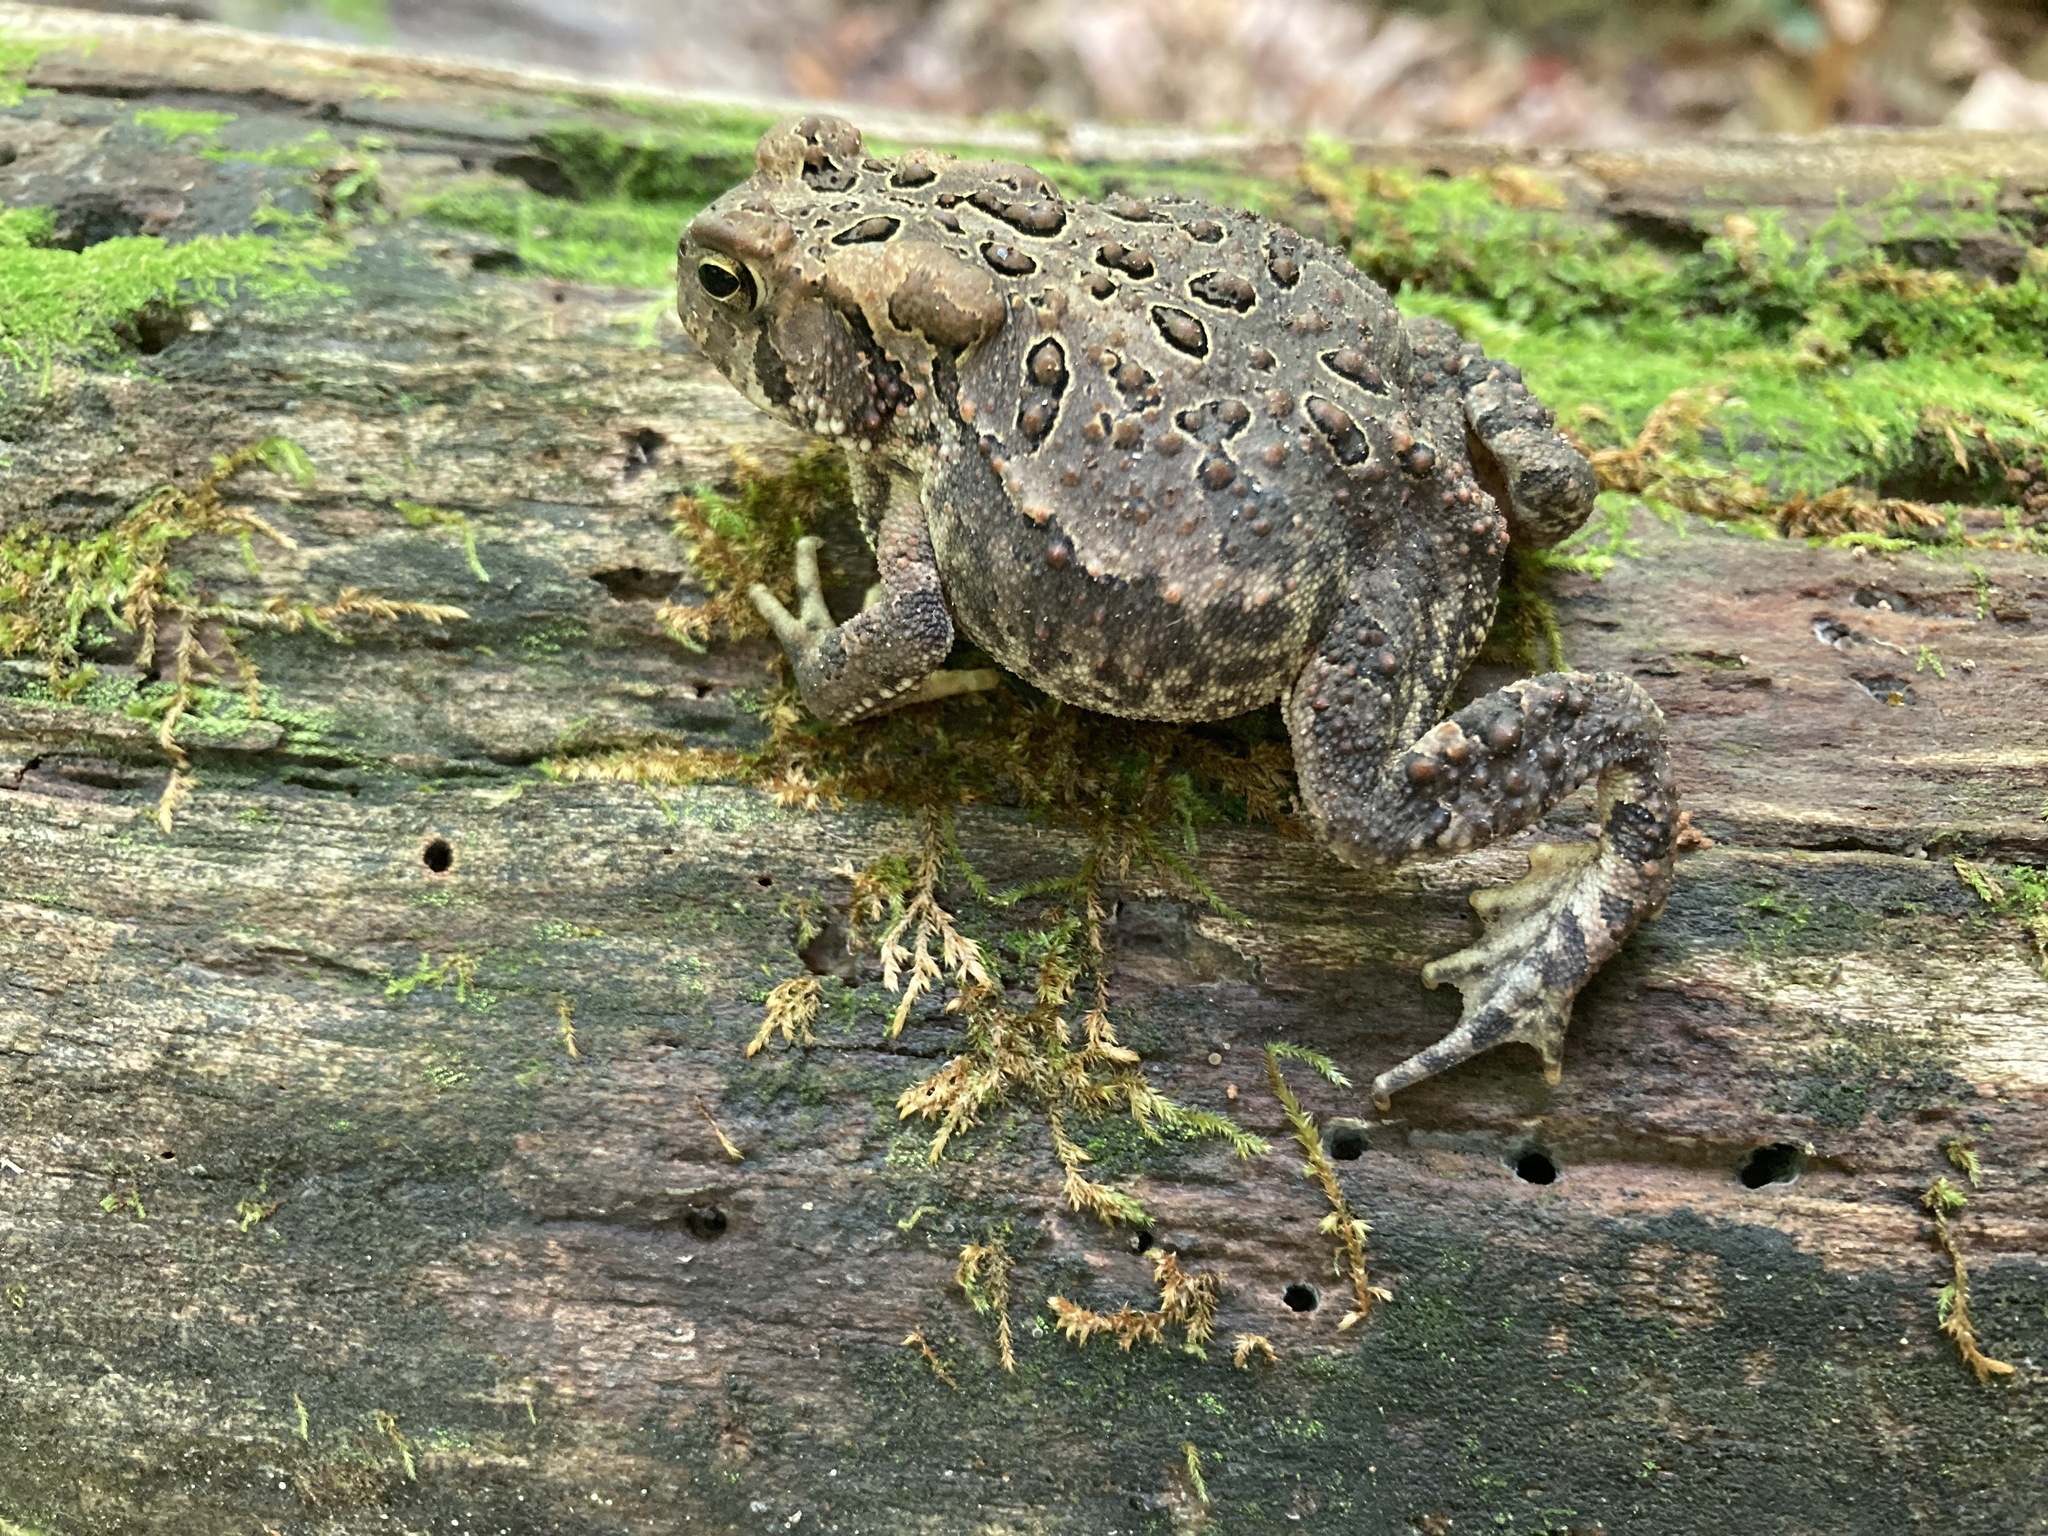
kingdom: Animalia
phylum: Chordata
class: Amphibia
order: Anura
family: Bufonidae
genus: Anaxyrus
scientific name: Anaxyrus americanus
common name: American toad
